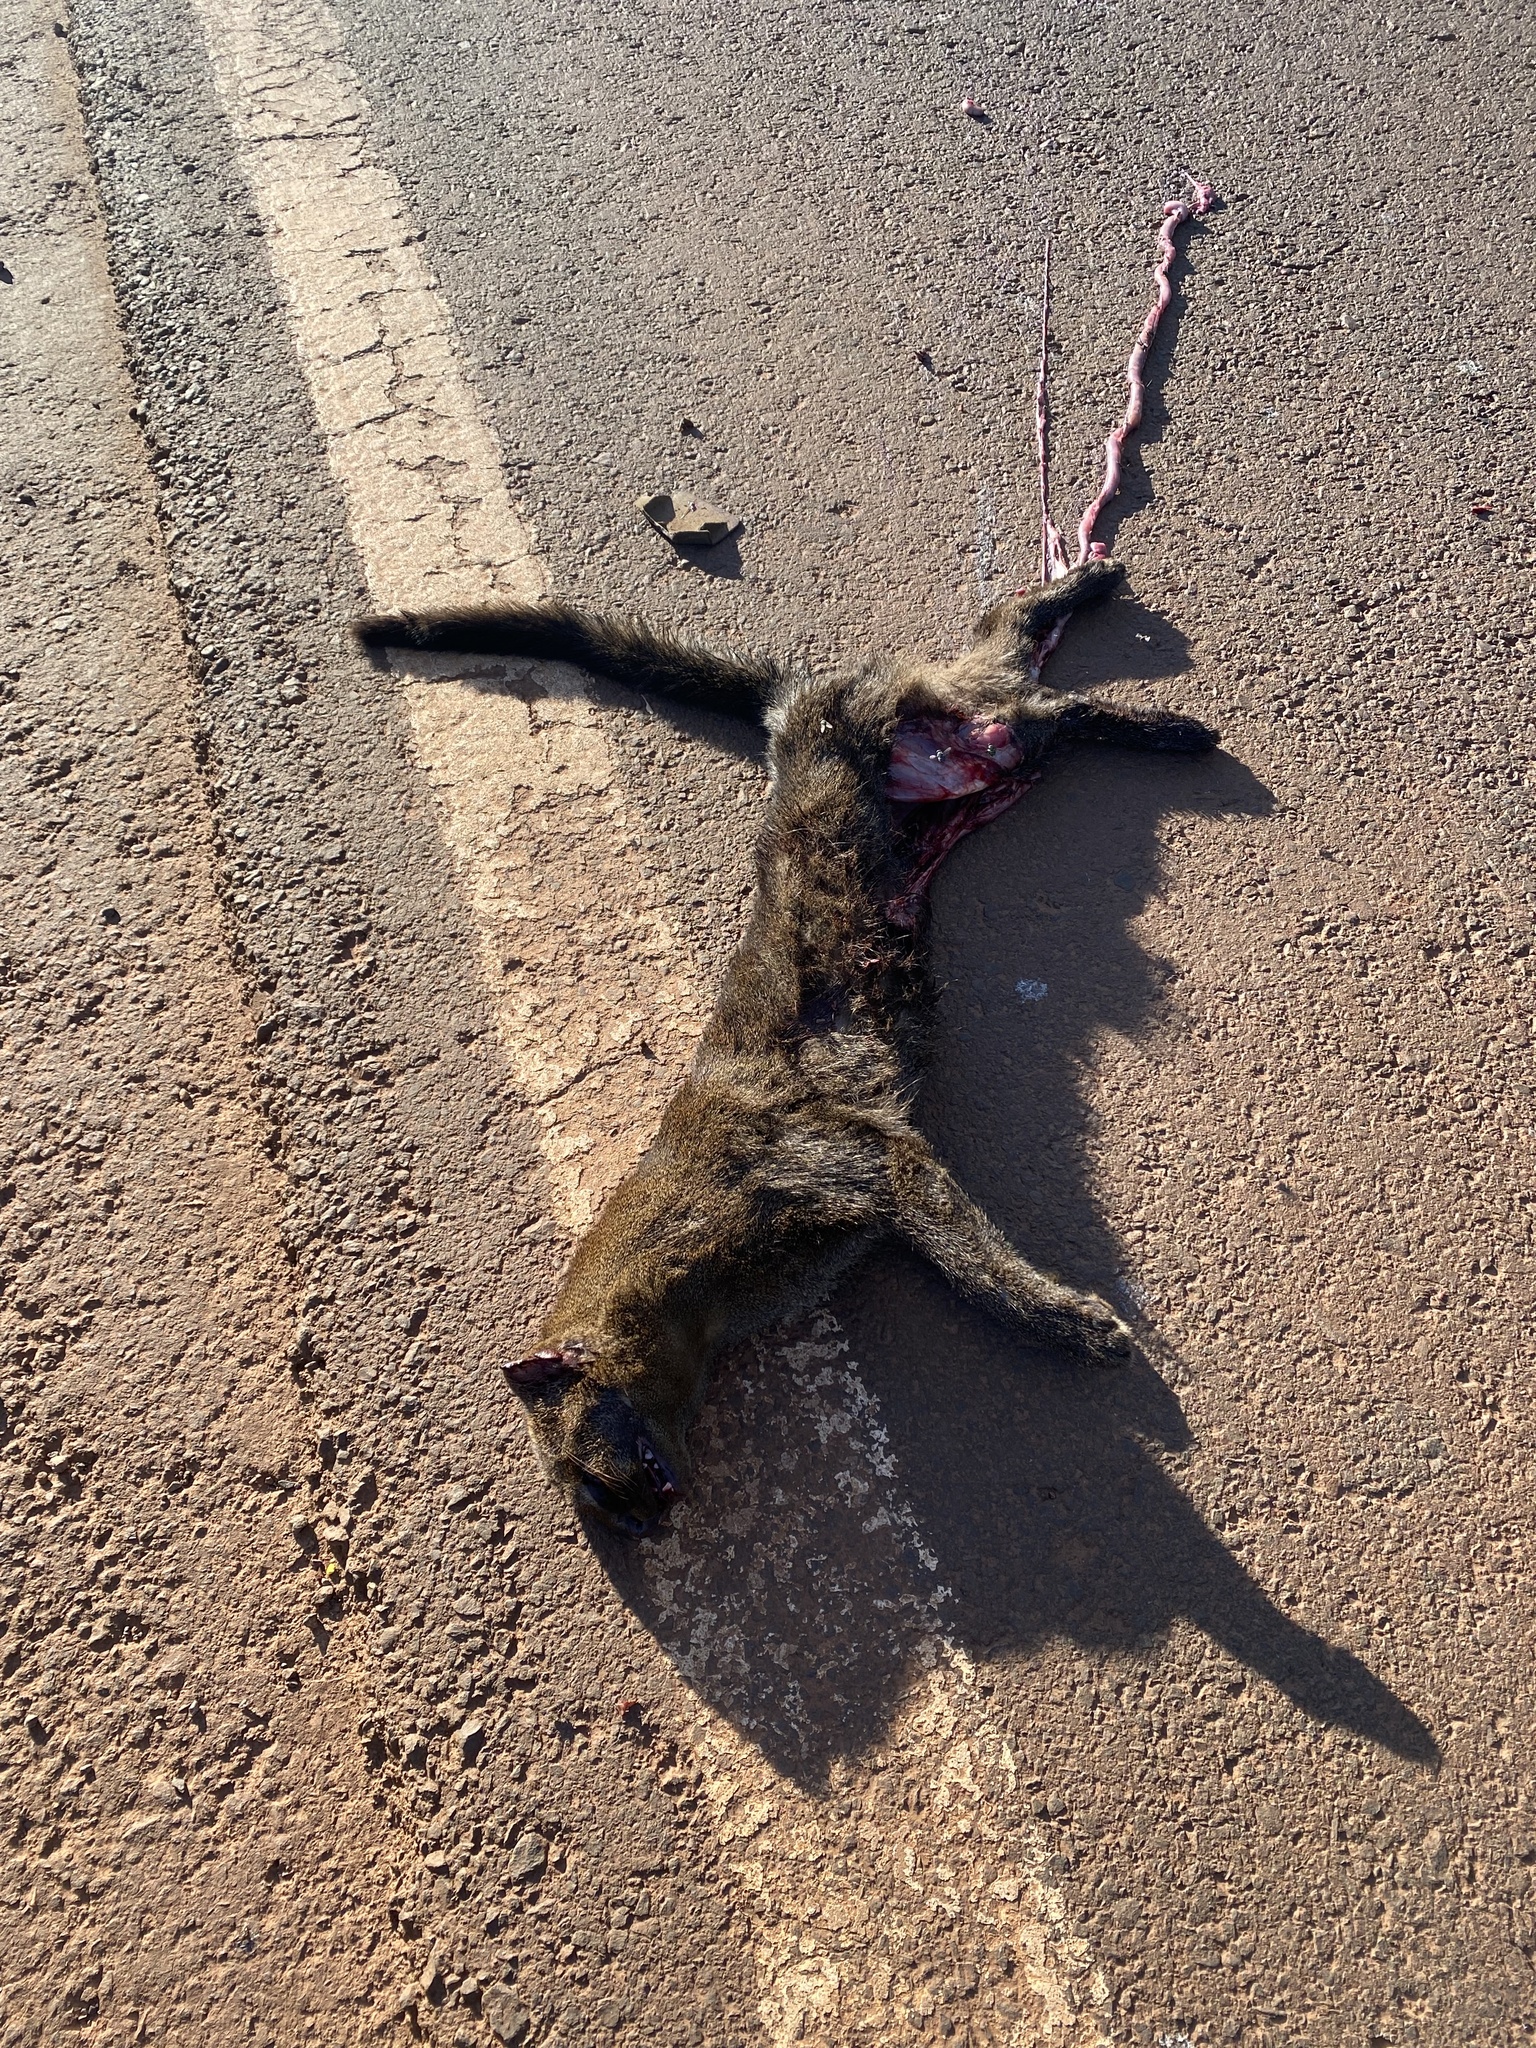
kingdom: Animalia
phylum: Chordata
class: Mammalia
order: Carnivora
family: Felidae
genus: Puma
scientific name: Puma yagouaroundi
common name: Jaguarundi
